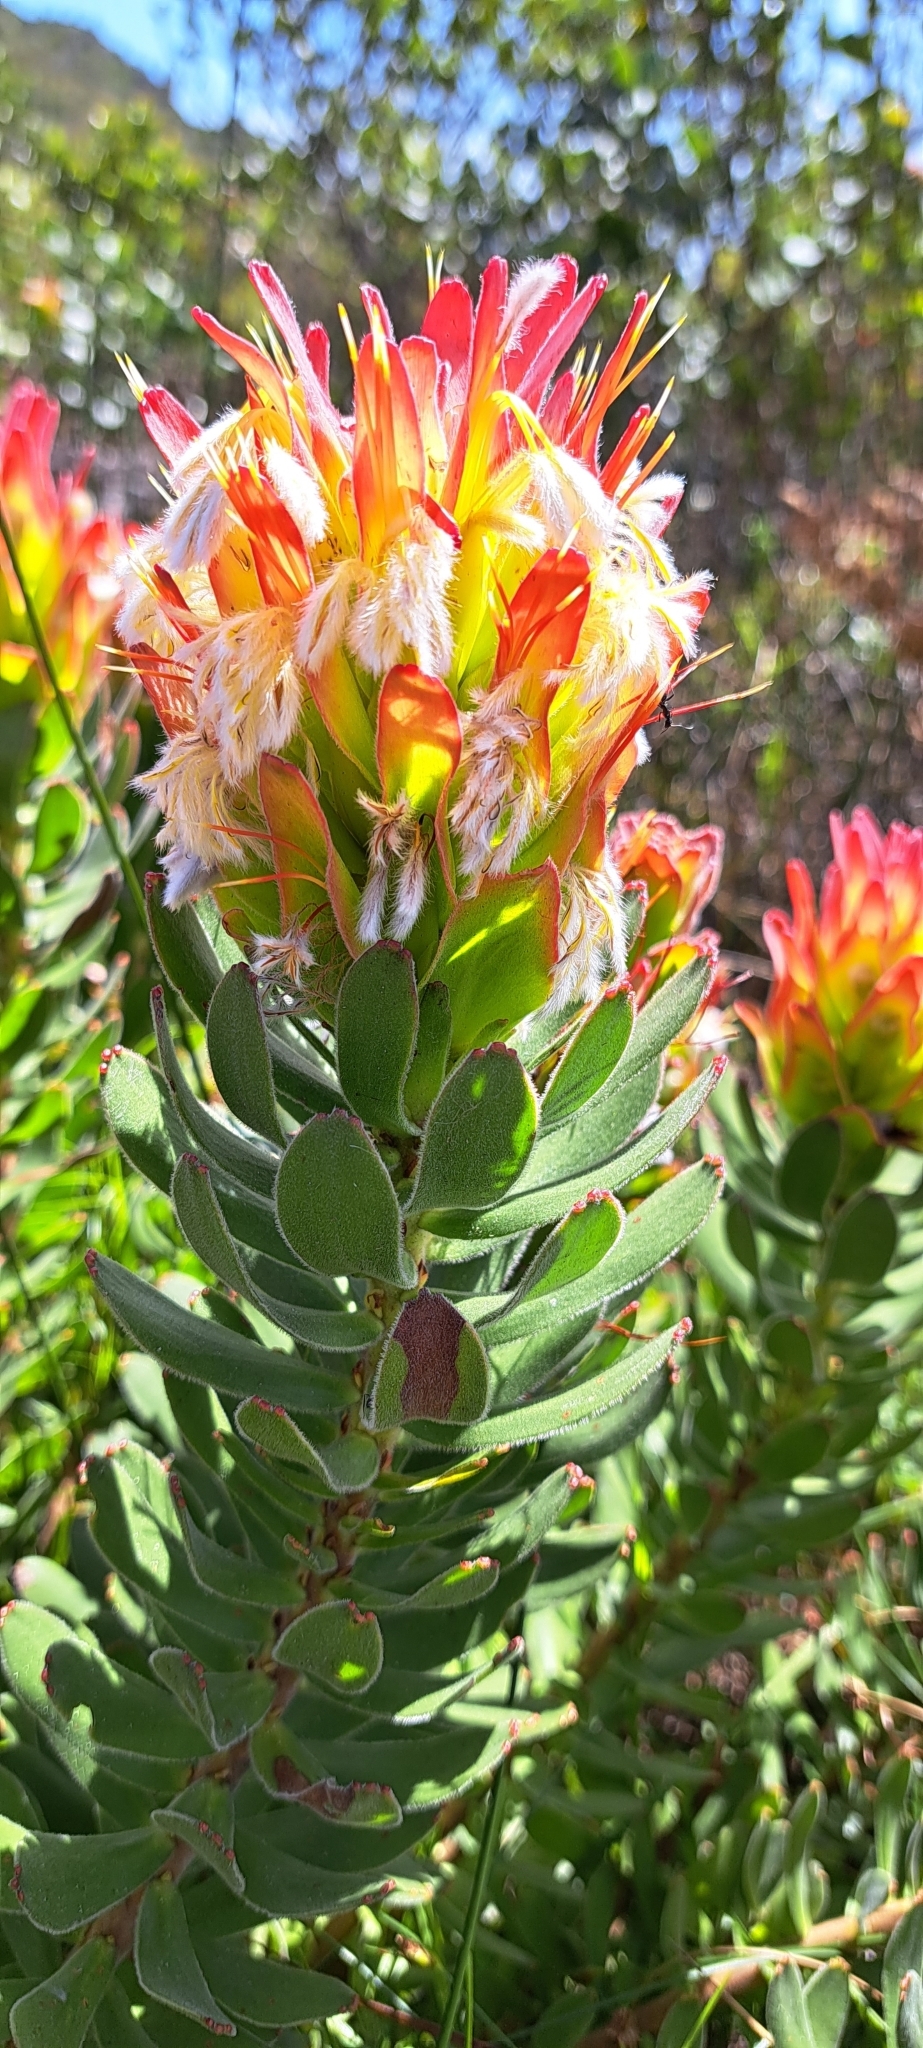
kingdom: Plantae
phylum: Tracheophyta
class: Magnoliopsida
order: Proteales
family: Proteaceae
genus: Mimetes
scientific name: Mimetes cucullatus
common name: Common pagoda
